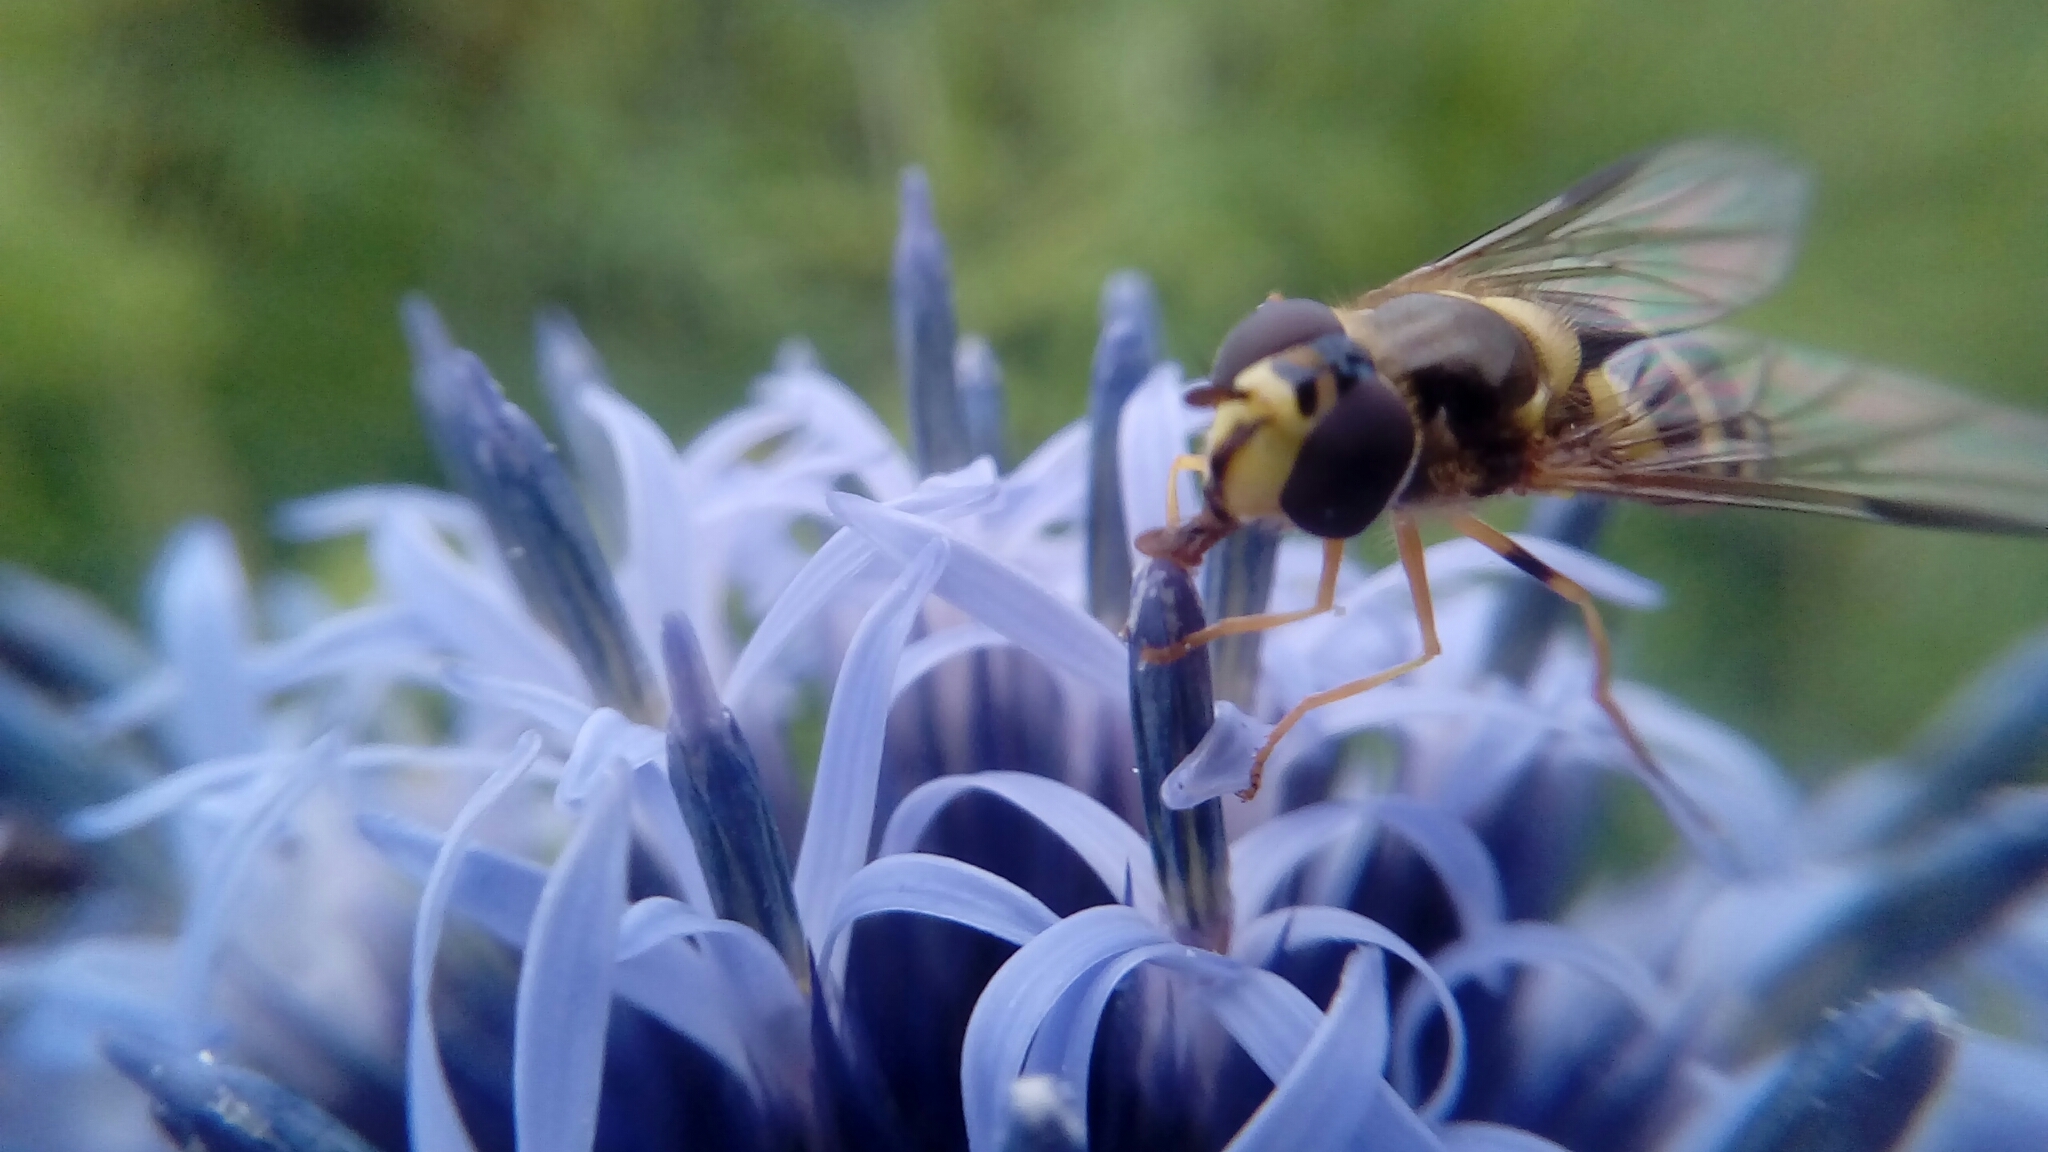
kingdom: Animalia
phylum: Arthropoda
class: Insecta
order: Diptera
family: Syrphidae
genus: Dasysyrphus
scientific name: Dasysyrphus albostriatus
